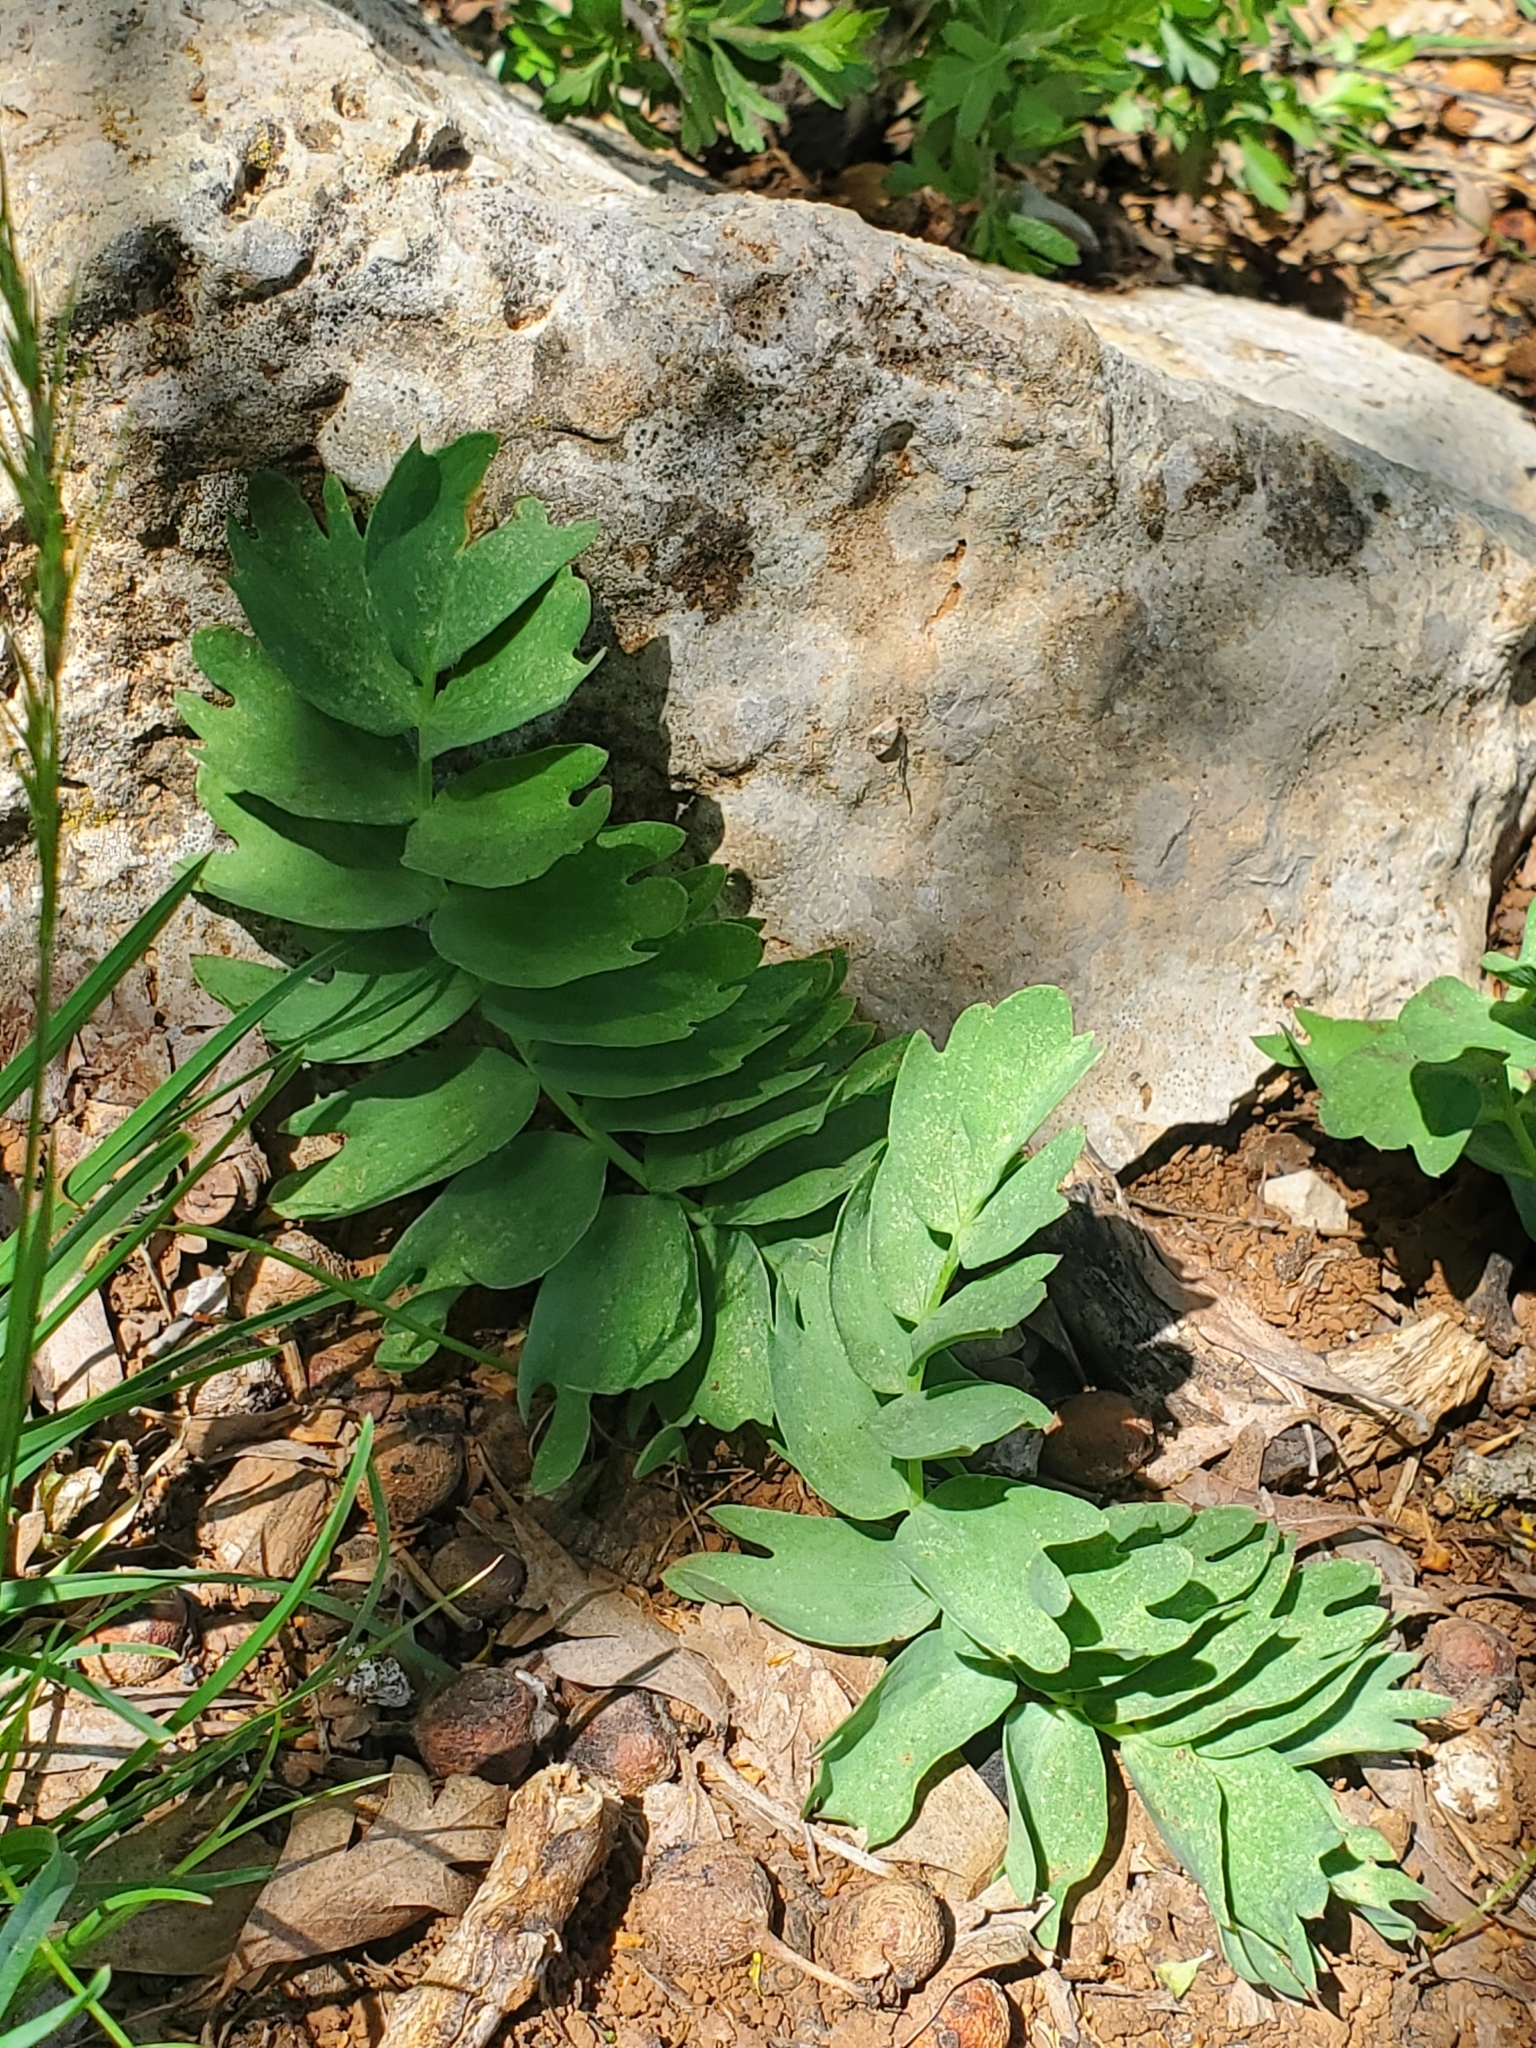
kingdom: Plantae
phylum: Tracheophyta
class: Magnoliopsida
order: Ranunculales
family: Berberidaceae
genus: Bongardia
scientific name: Bongardia chrysogonum
